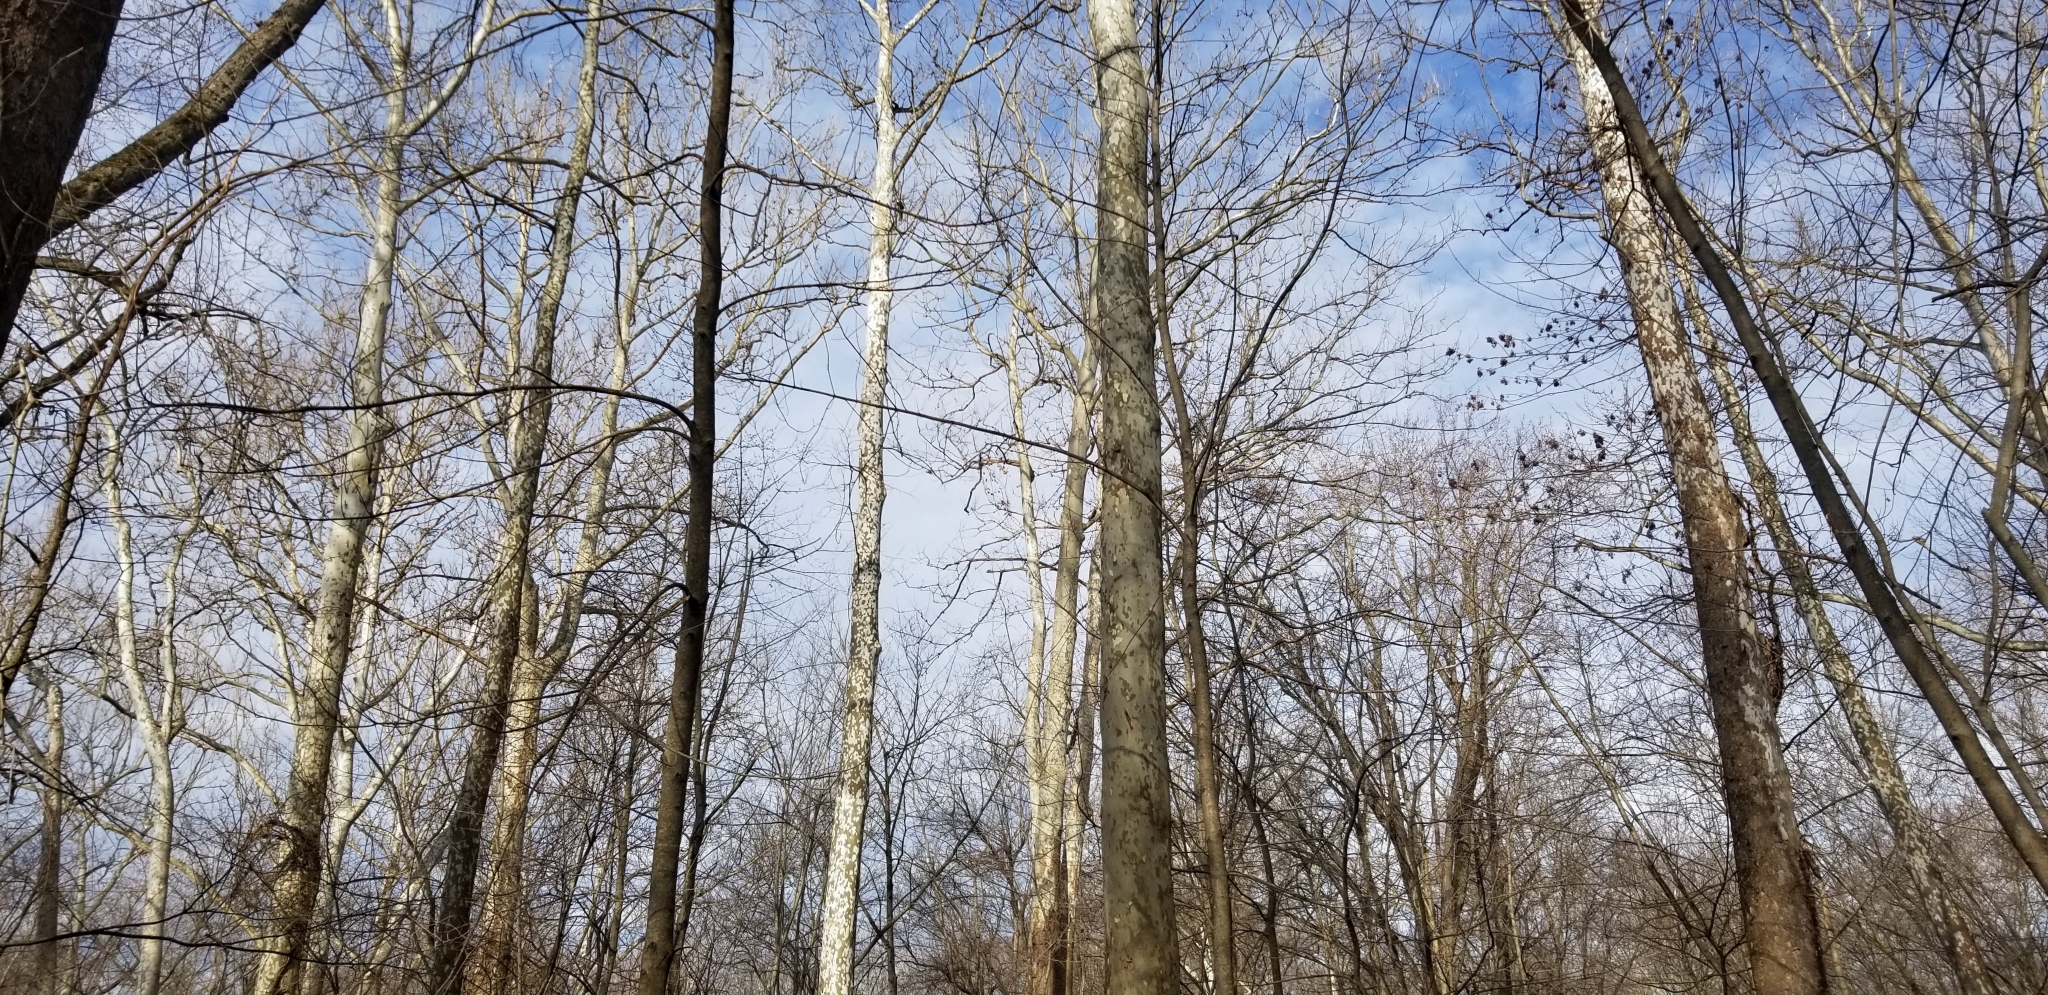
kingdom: Plantae
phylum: Tracheophyta
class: Magnoliopsida
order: Proteales
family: Platanaceae
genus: Platanus
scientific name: Platanus occidentalis
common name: American sycamore
